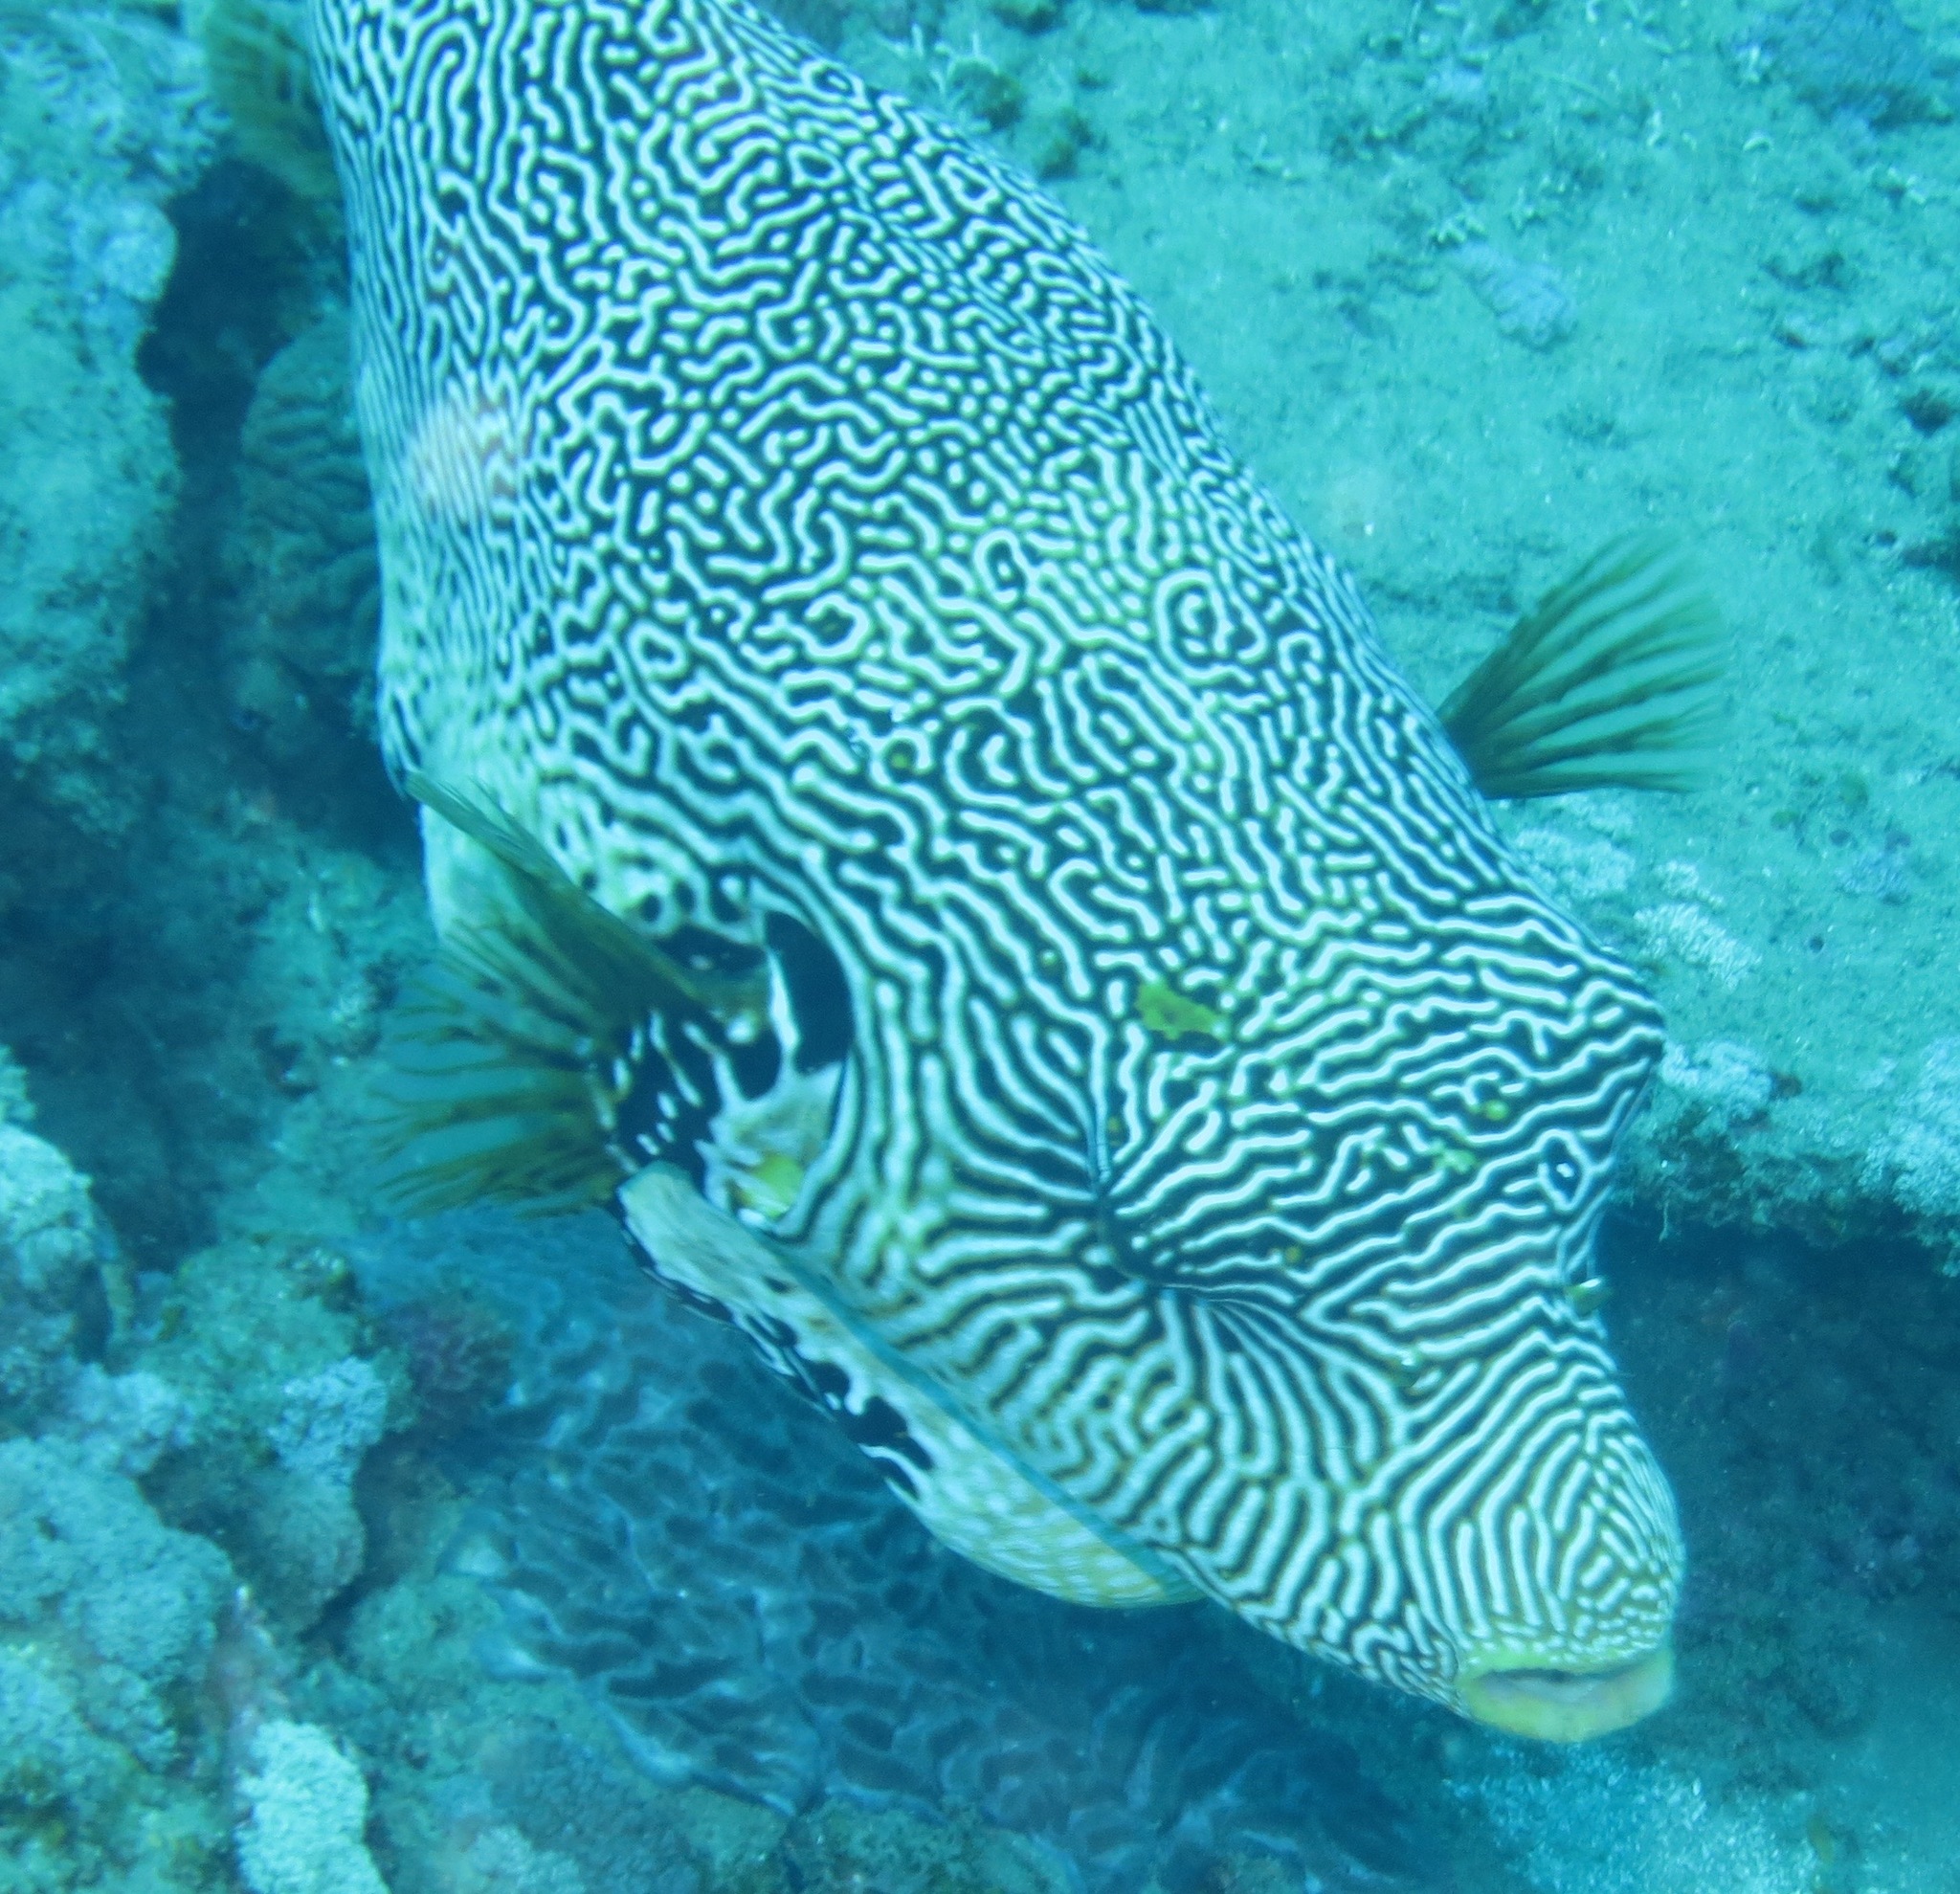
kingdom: Animalia
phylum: Chordata
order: Tetraodontiformes
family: Tetraodontidae
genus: Arothron
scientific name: Arothron mappa
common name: Map blaasop
